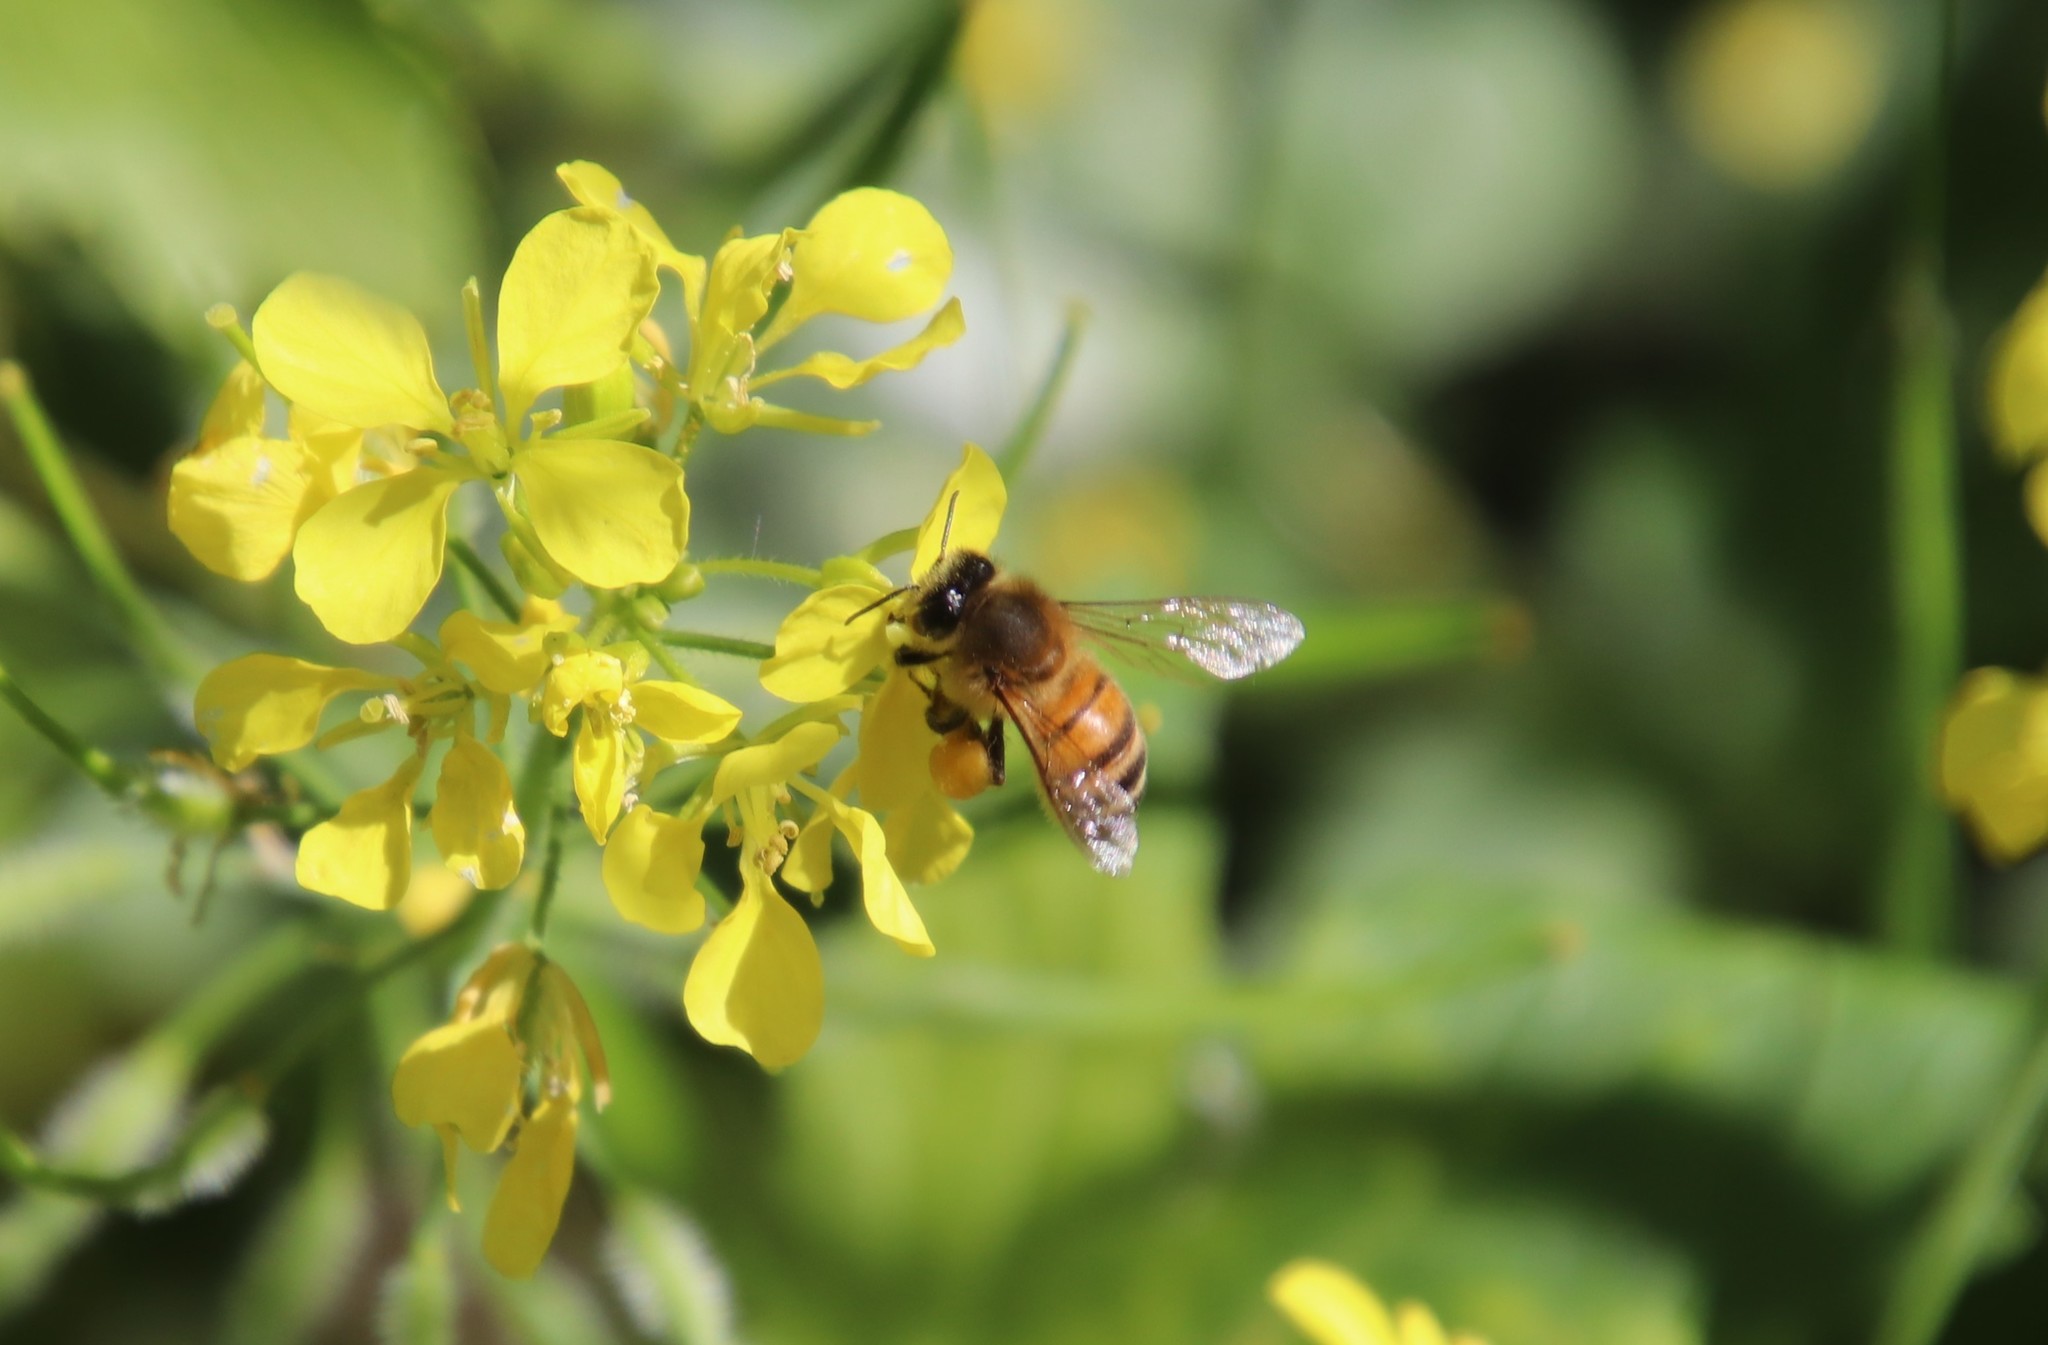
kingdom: Animalia
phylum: Arthropoda
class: Insecta
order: Hymenoptera
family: Apidae
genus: Apis
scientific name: Apis mellifera
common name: Honey bee
